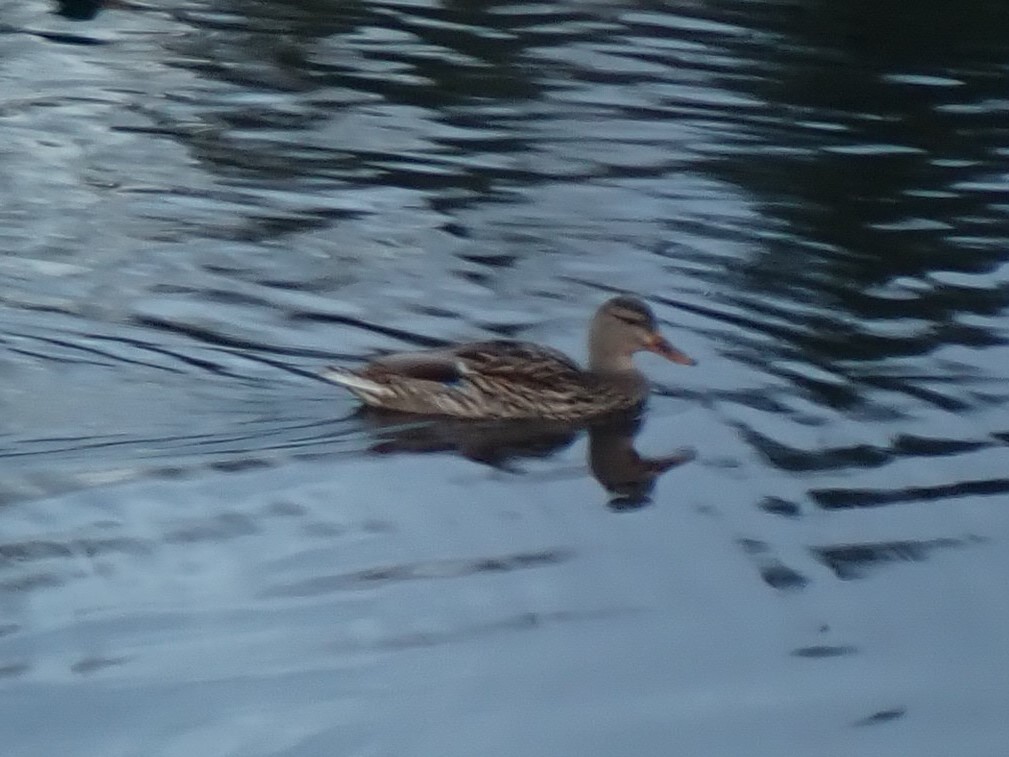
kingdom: Animalia
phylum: Chordata
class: Aves
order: Anseriformes
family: Anatidae
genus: Anas
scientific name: Anas platyrhynchos
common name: Mallard
